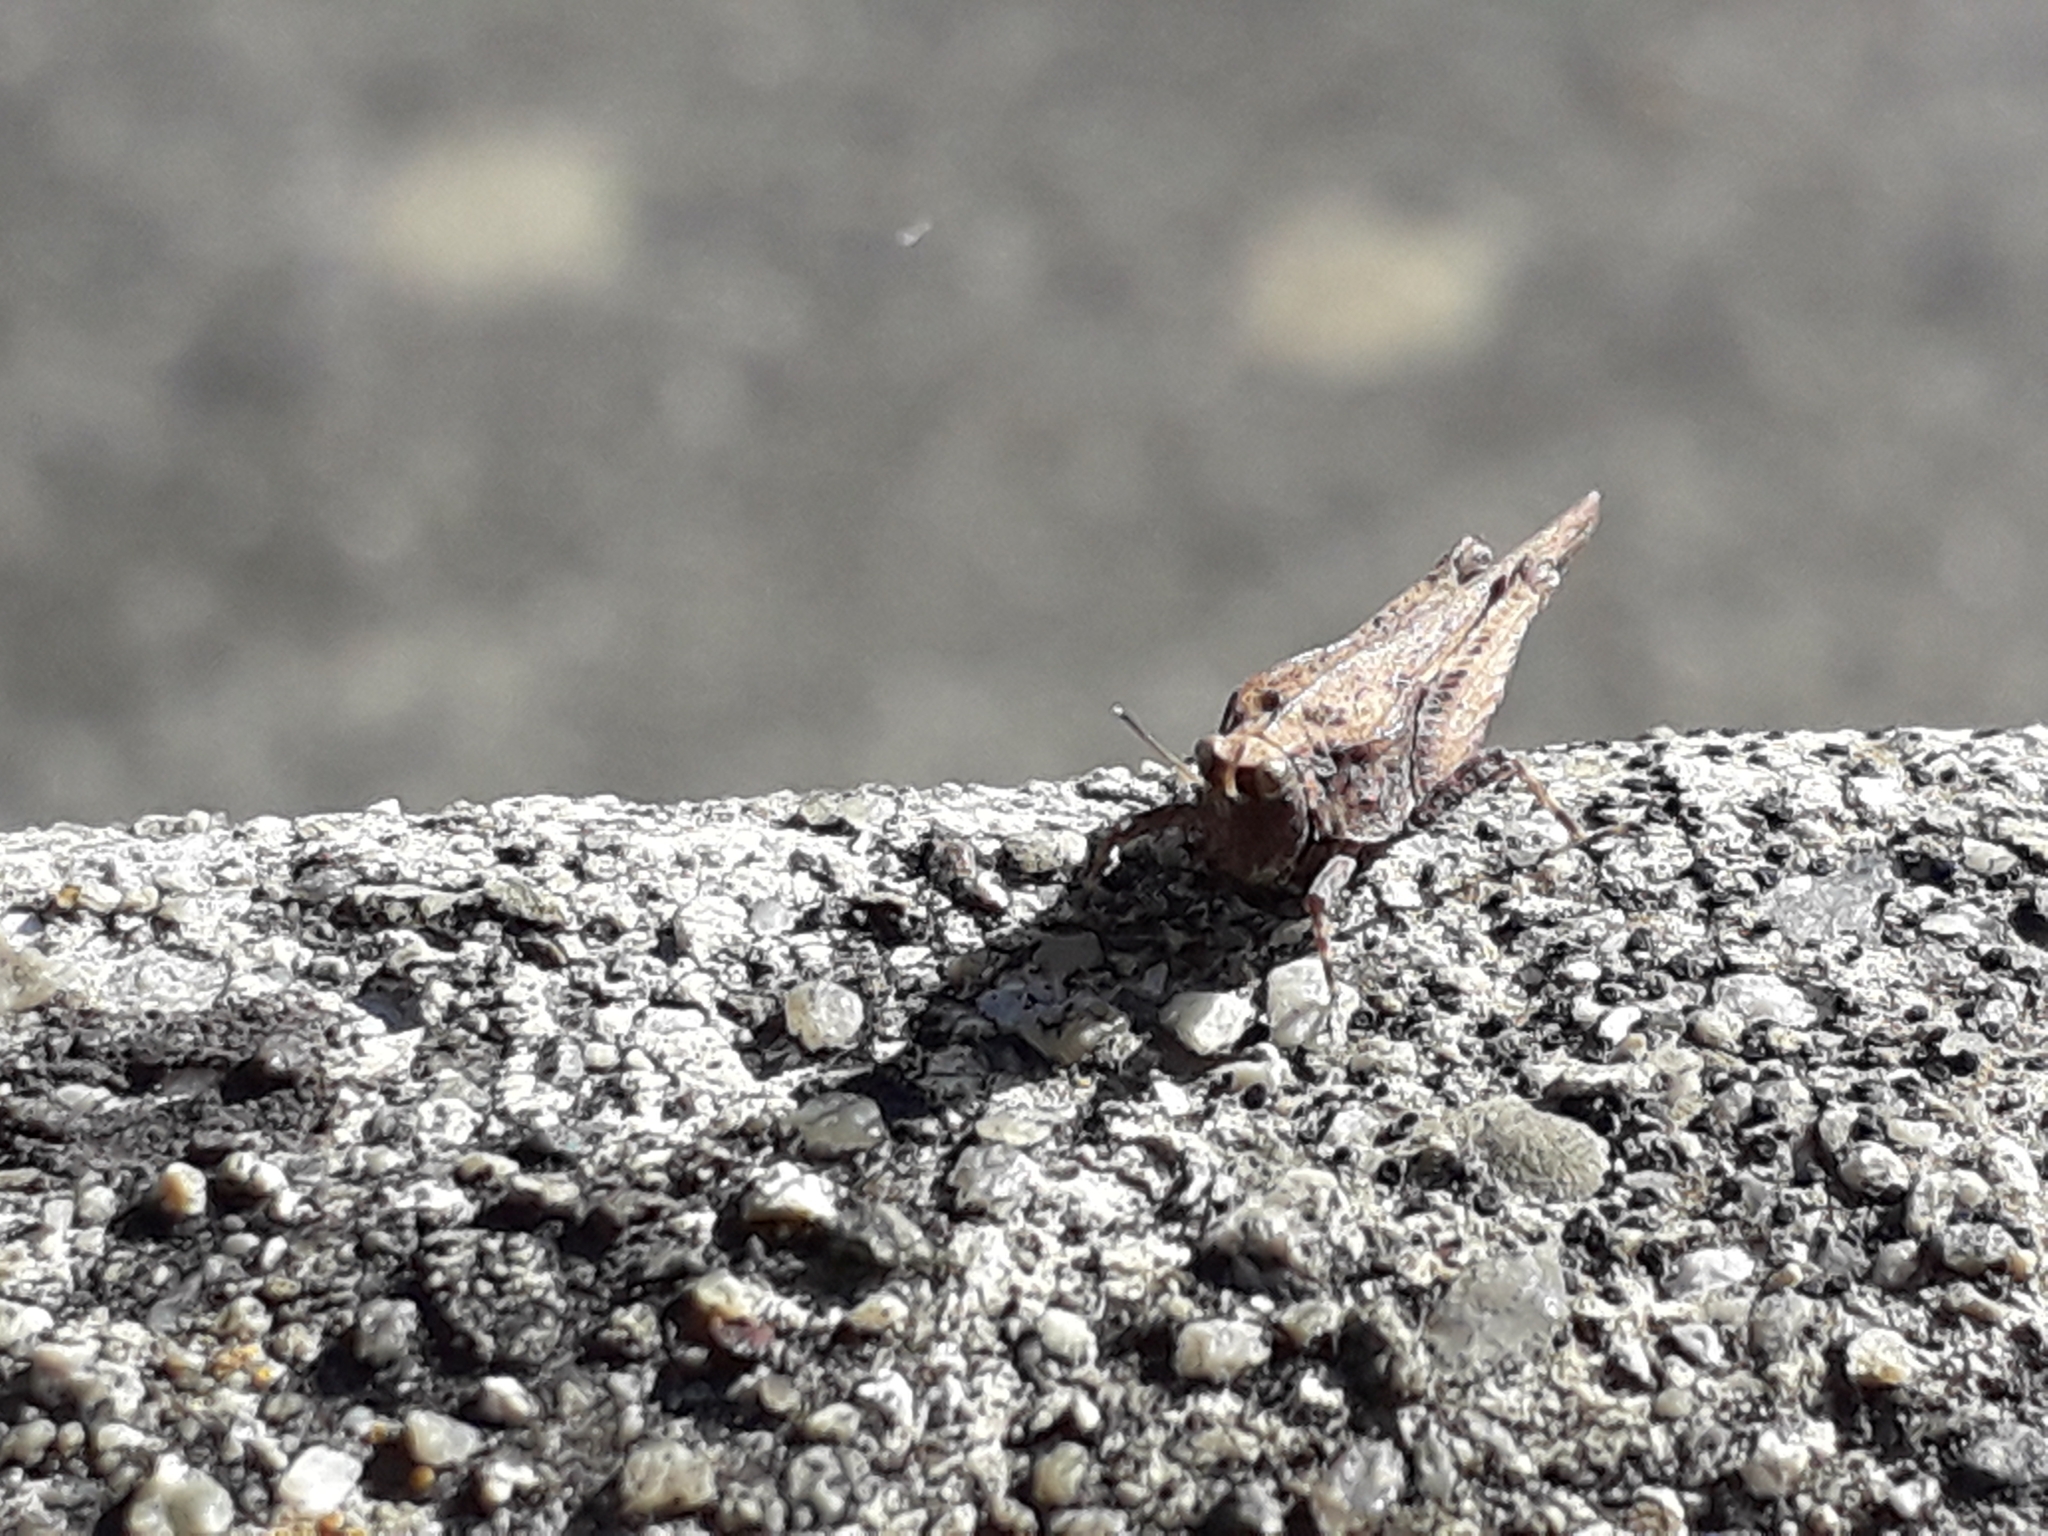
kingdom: Animalia
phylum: Arthropoda
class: Insecta
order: Orthoptera
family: Tetrigidae
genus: Tetrix
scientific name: Tetrix subulata
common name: Slender ground-hopper
